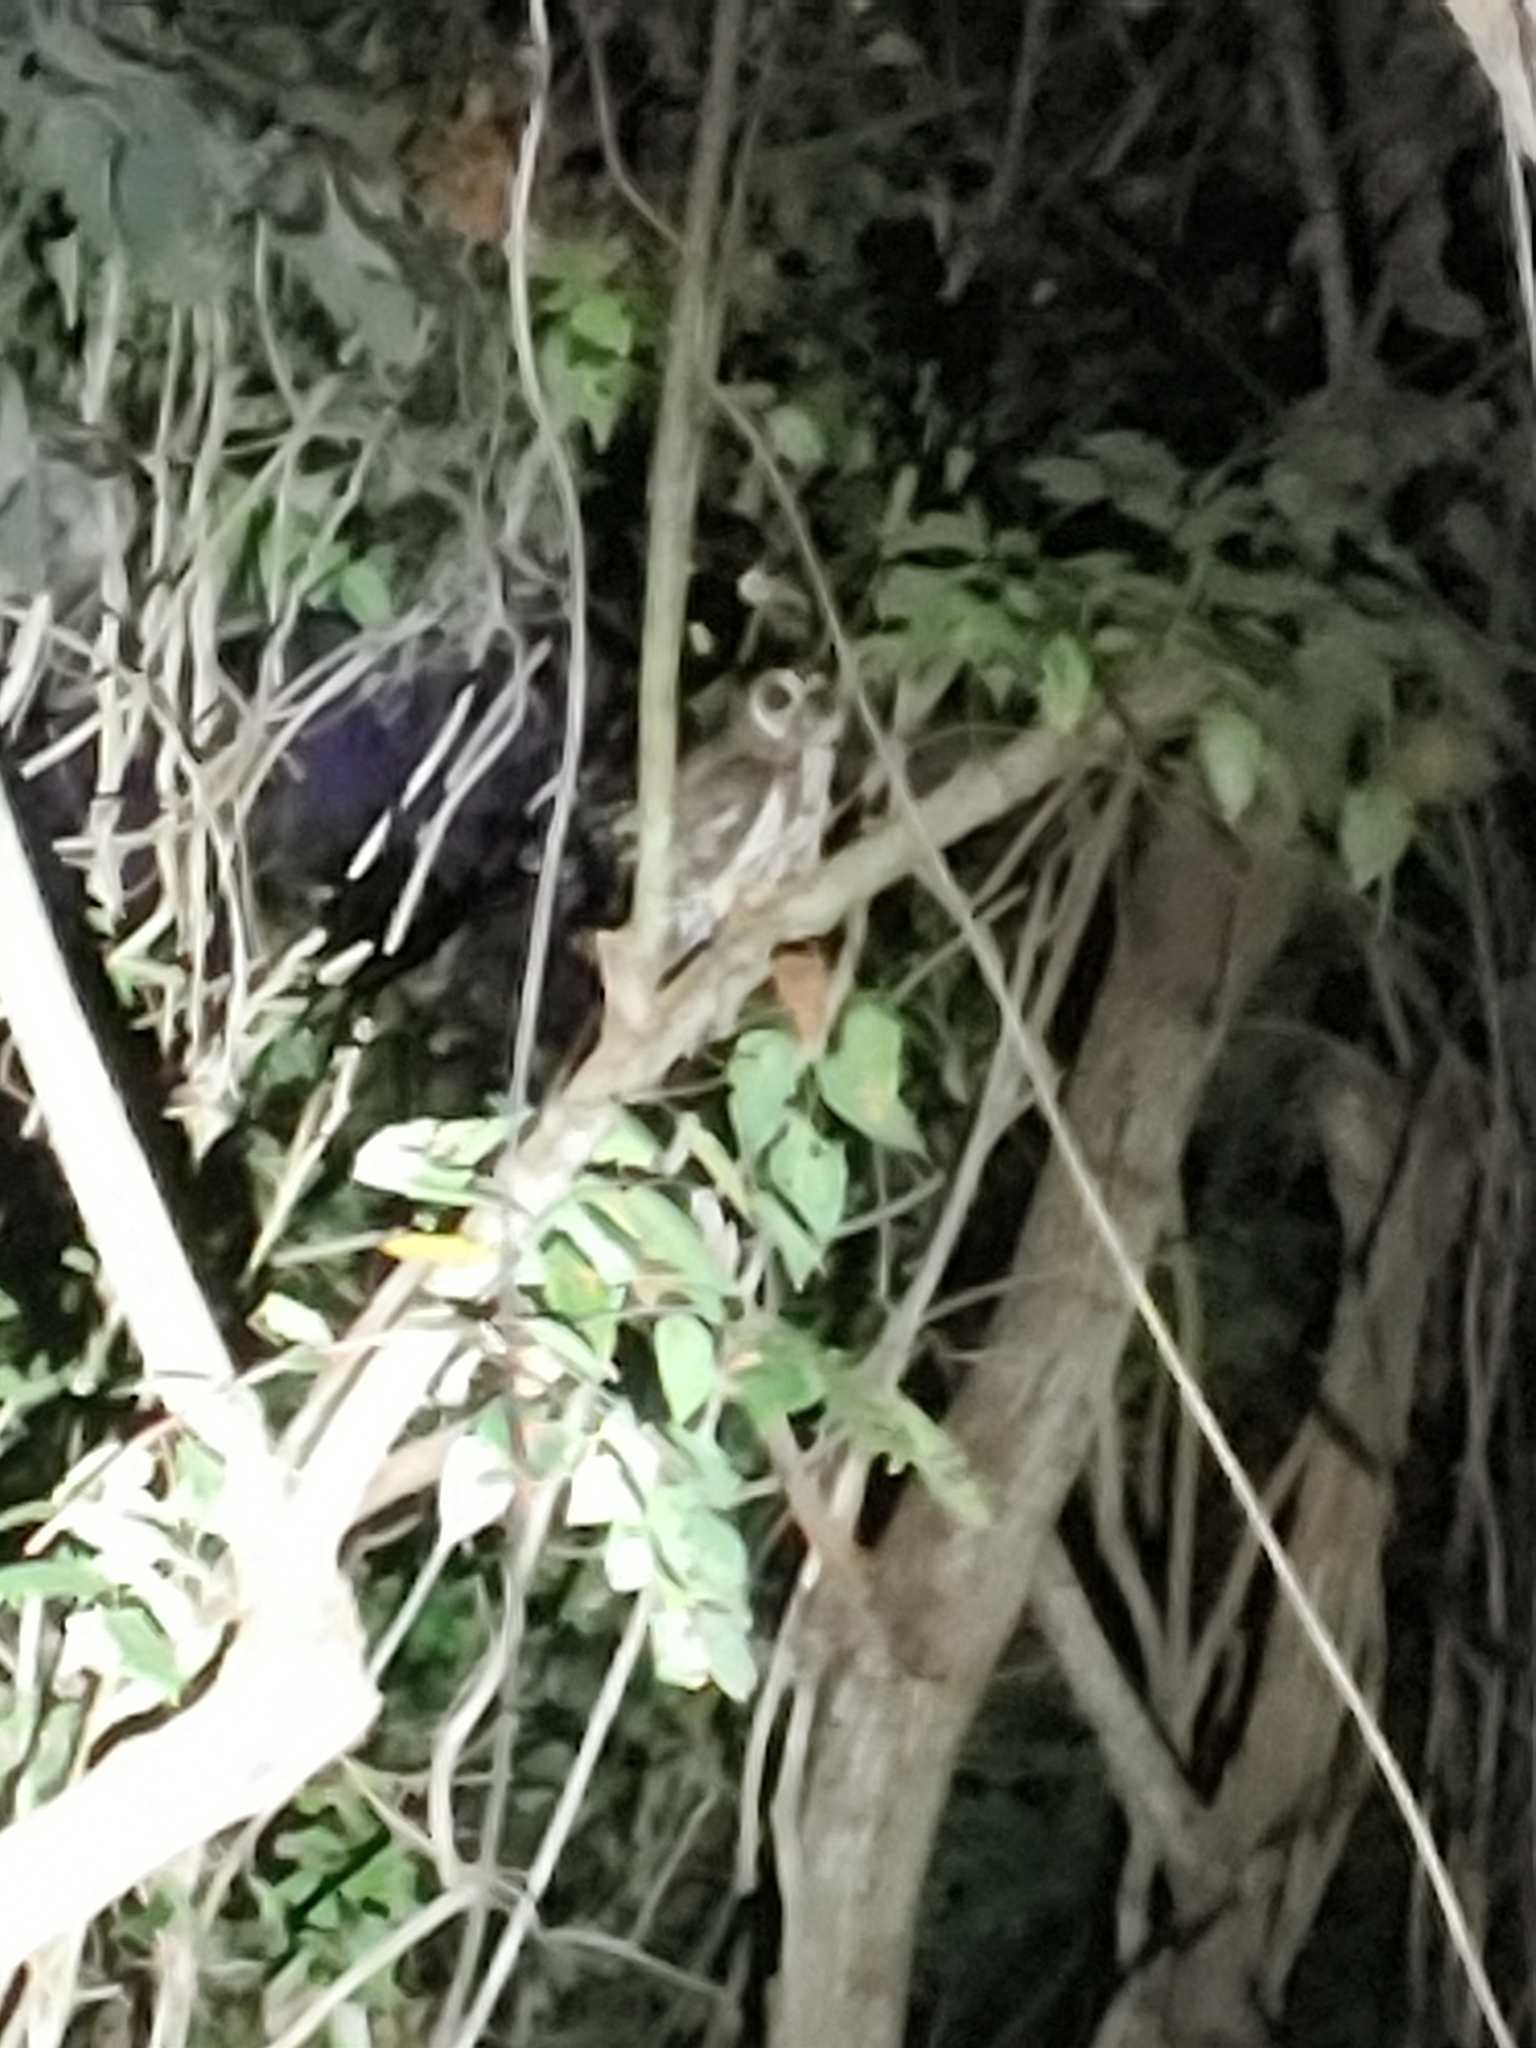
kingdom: Animalia
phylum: Chordata
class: Aves
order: Strigiformes
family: Strigidae
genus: Strix
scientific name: Strix virgata
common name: Mottled owl
